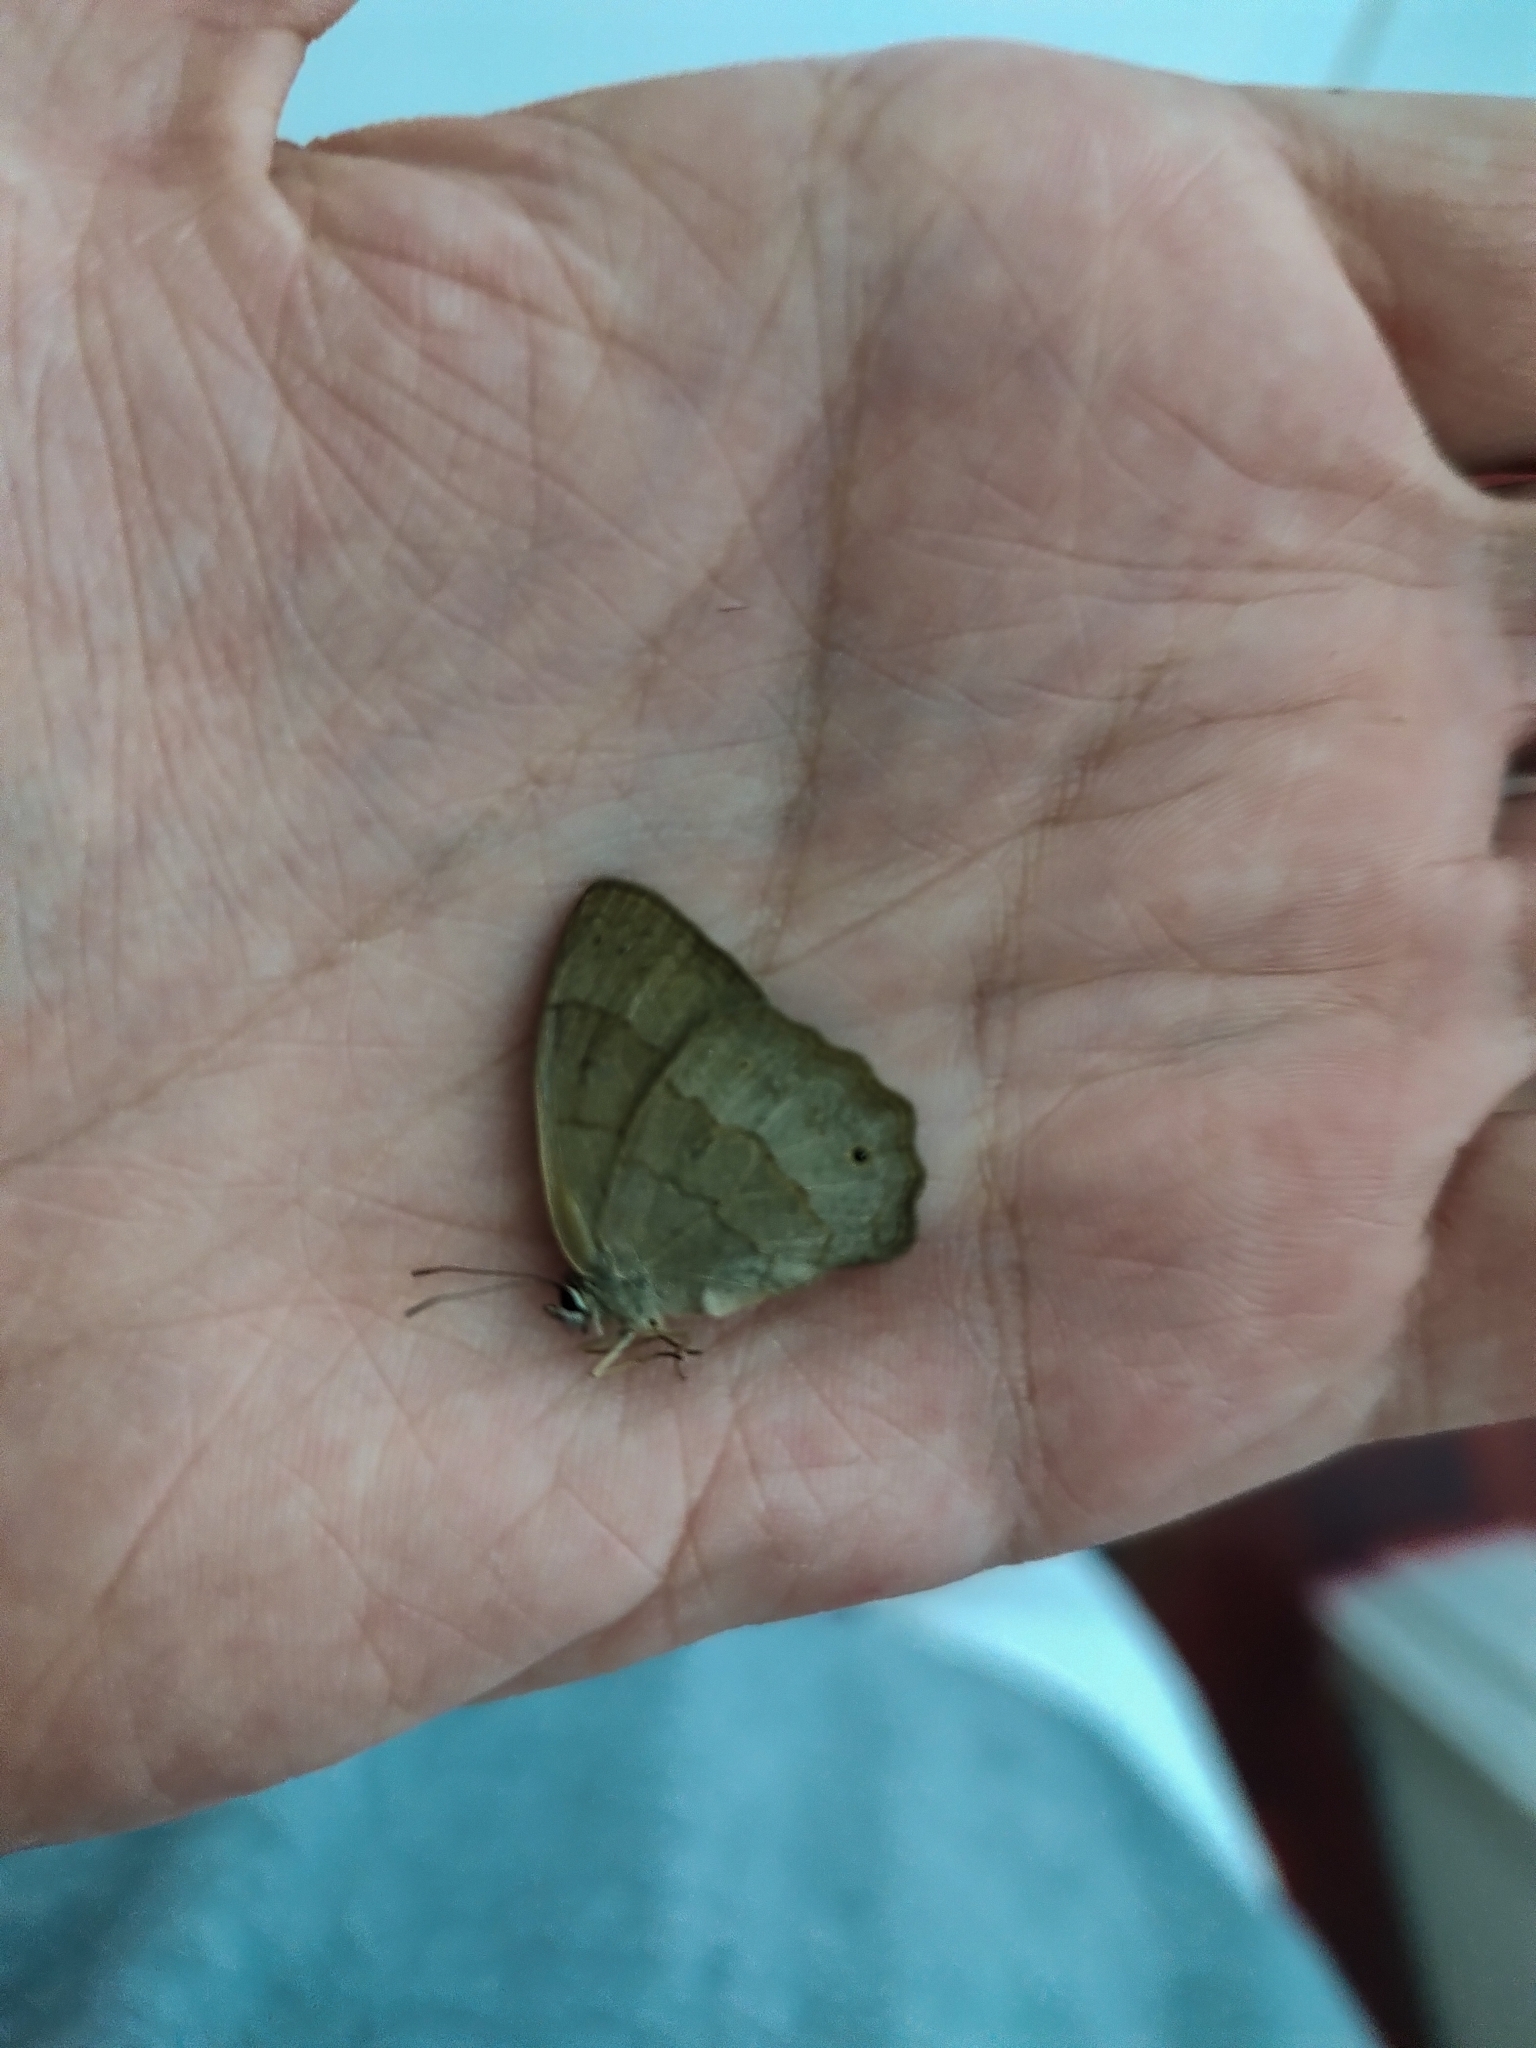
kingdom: Animalia
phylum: Arthropoda
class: Insecta
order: Lepidoptera
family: Nymphalidae
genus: Euptychia
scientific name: Euptychia
